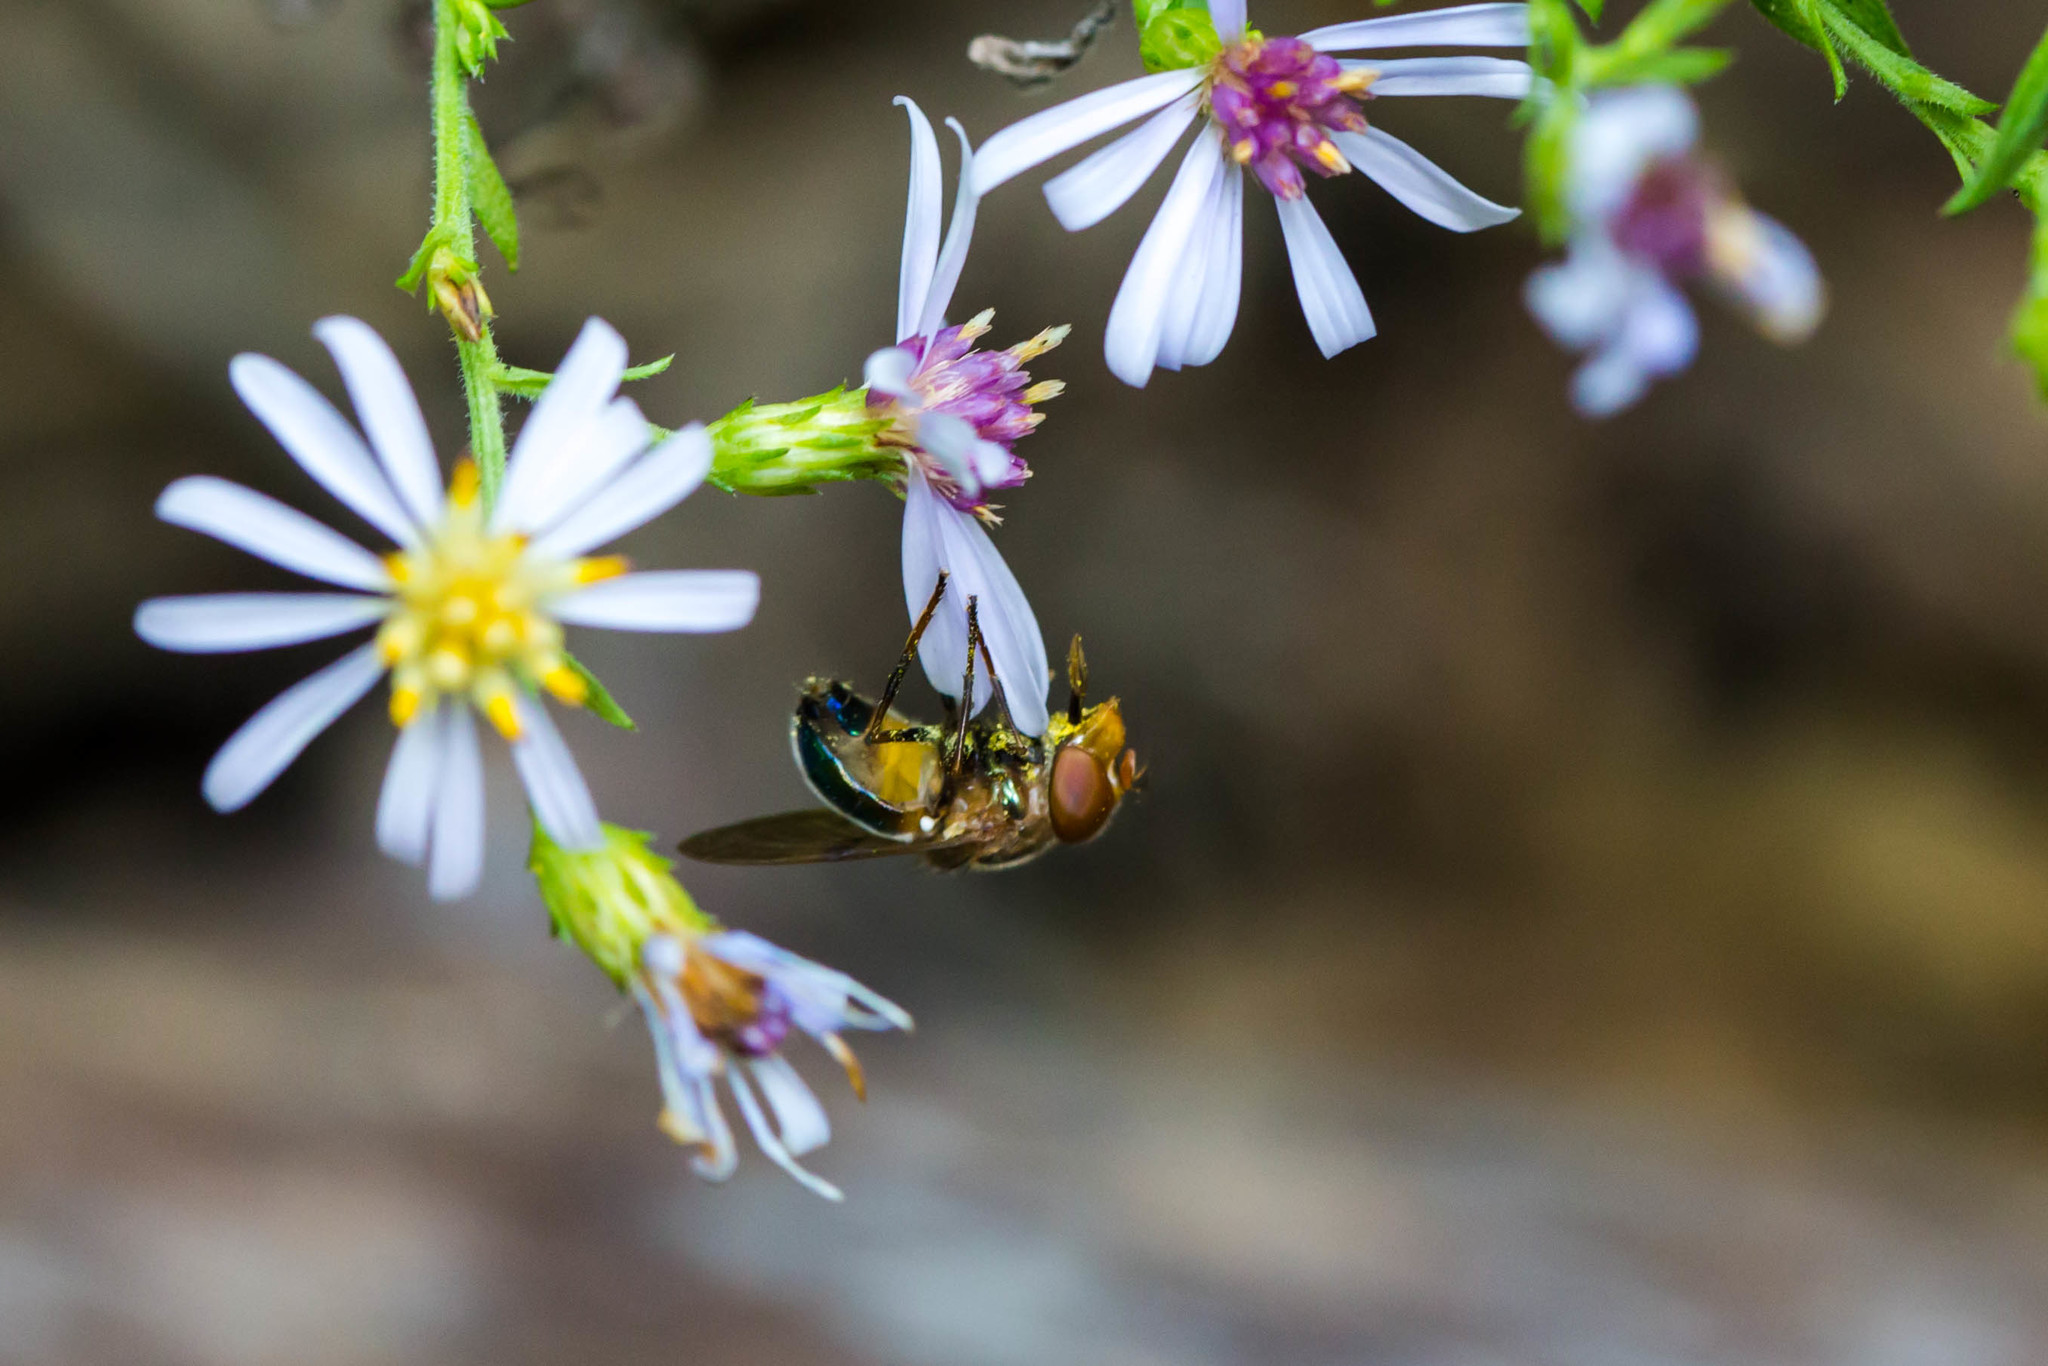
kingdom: Animalia
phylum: Arthropoda
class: Insecta
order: Diptera
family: Syrphidae
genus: Copestylum
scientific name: Copestylum vesicularium
